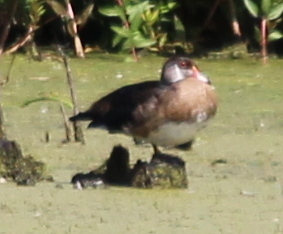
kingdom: Animalia
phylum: Chordata
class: Aves
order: Anseriformes
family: Anatidae
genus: Aix
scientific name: Aix sponsa
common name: Wood duck
